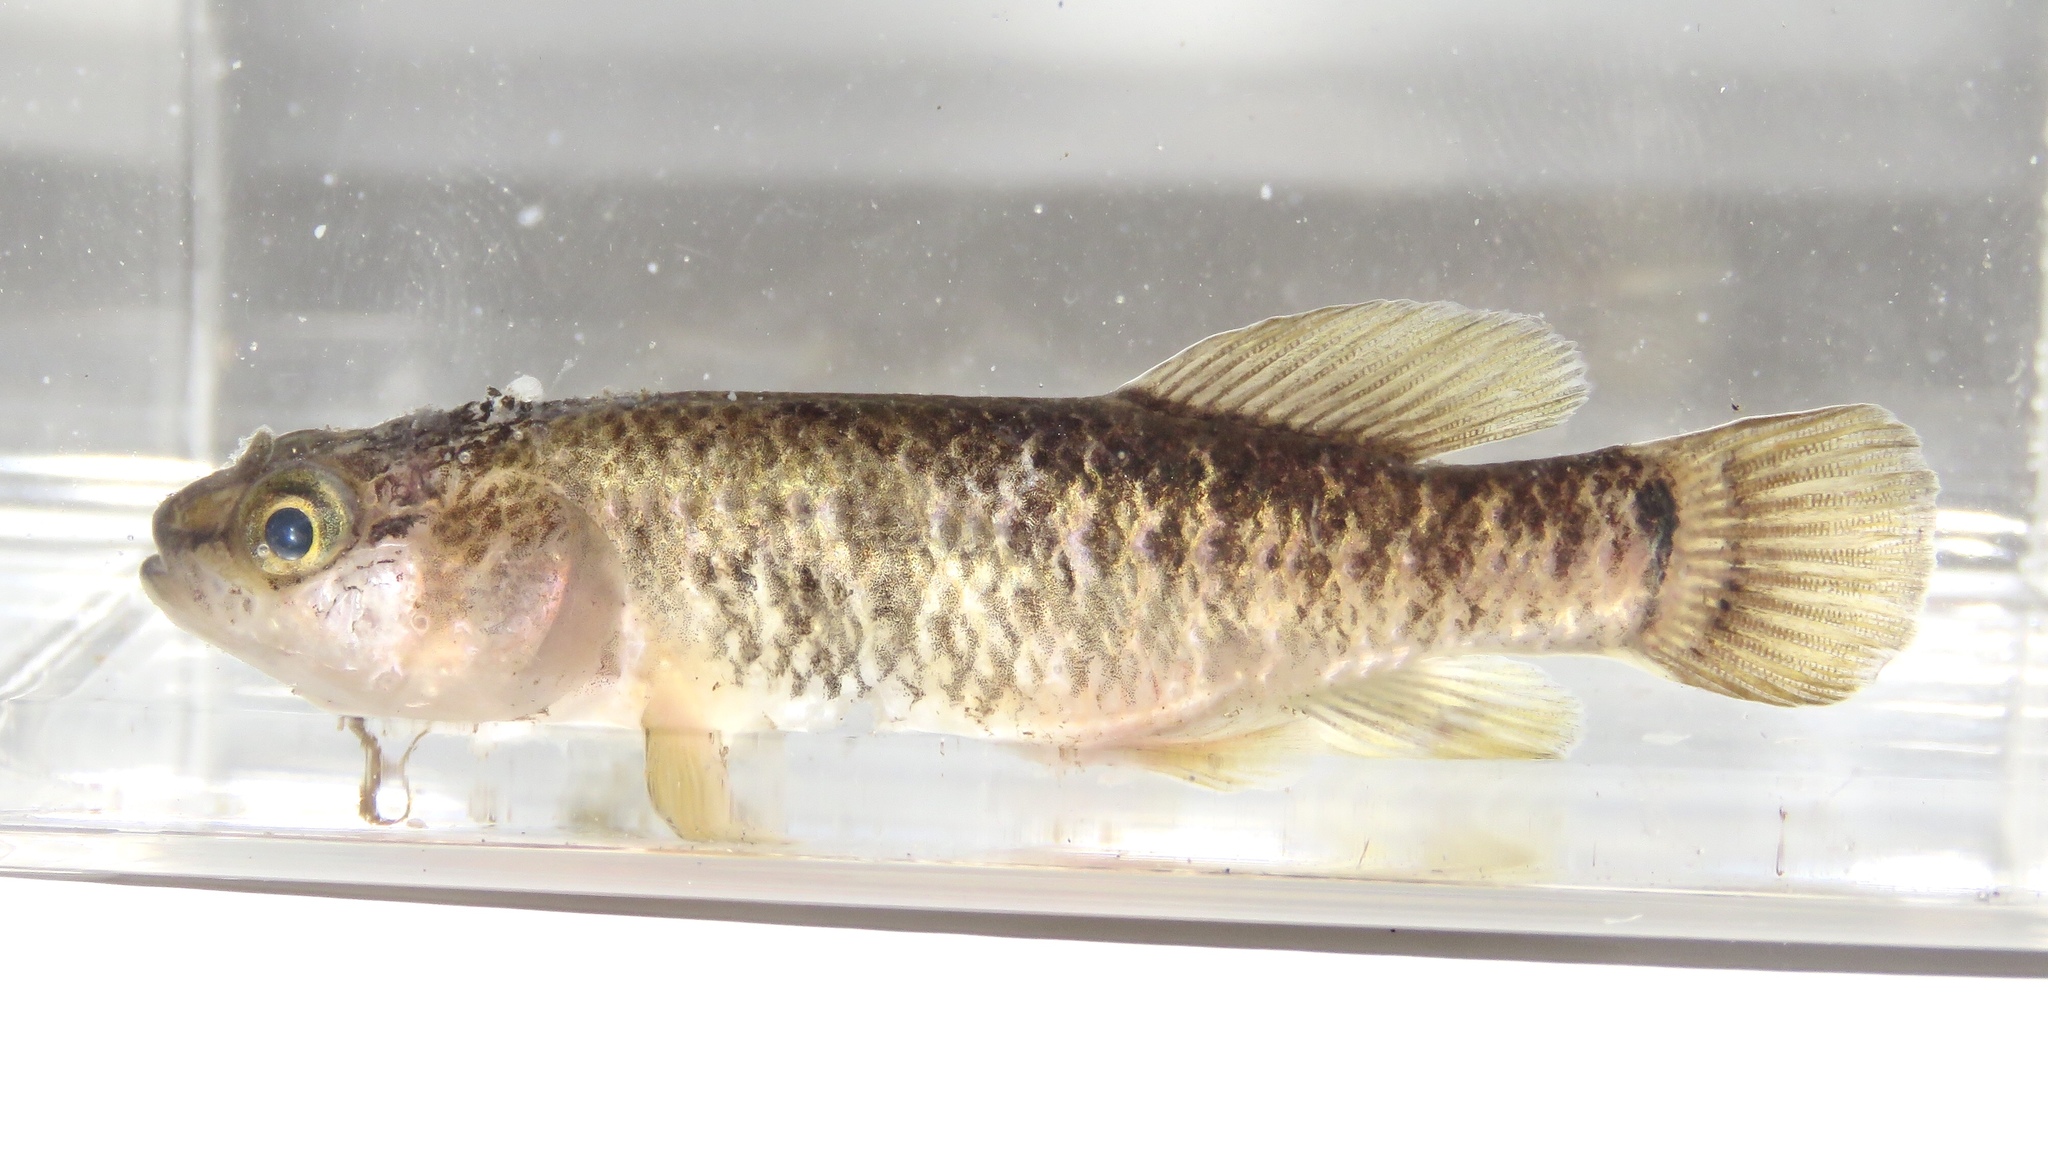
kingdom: Animalia
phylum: Chordata
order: Esociformes
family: Umbridae
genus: Umbra
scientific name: Umbra limi
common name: Central mudminnow
